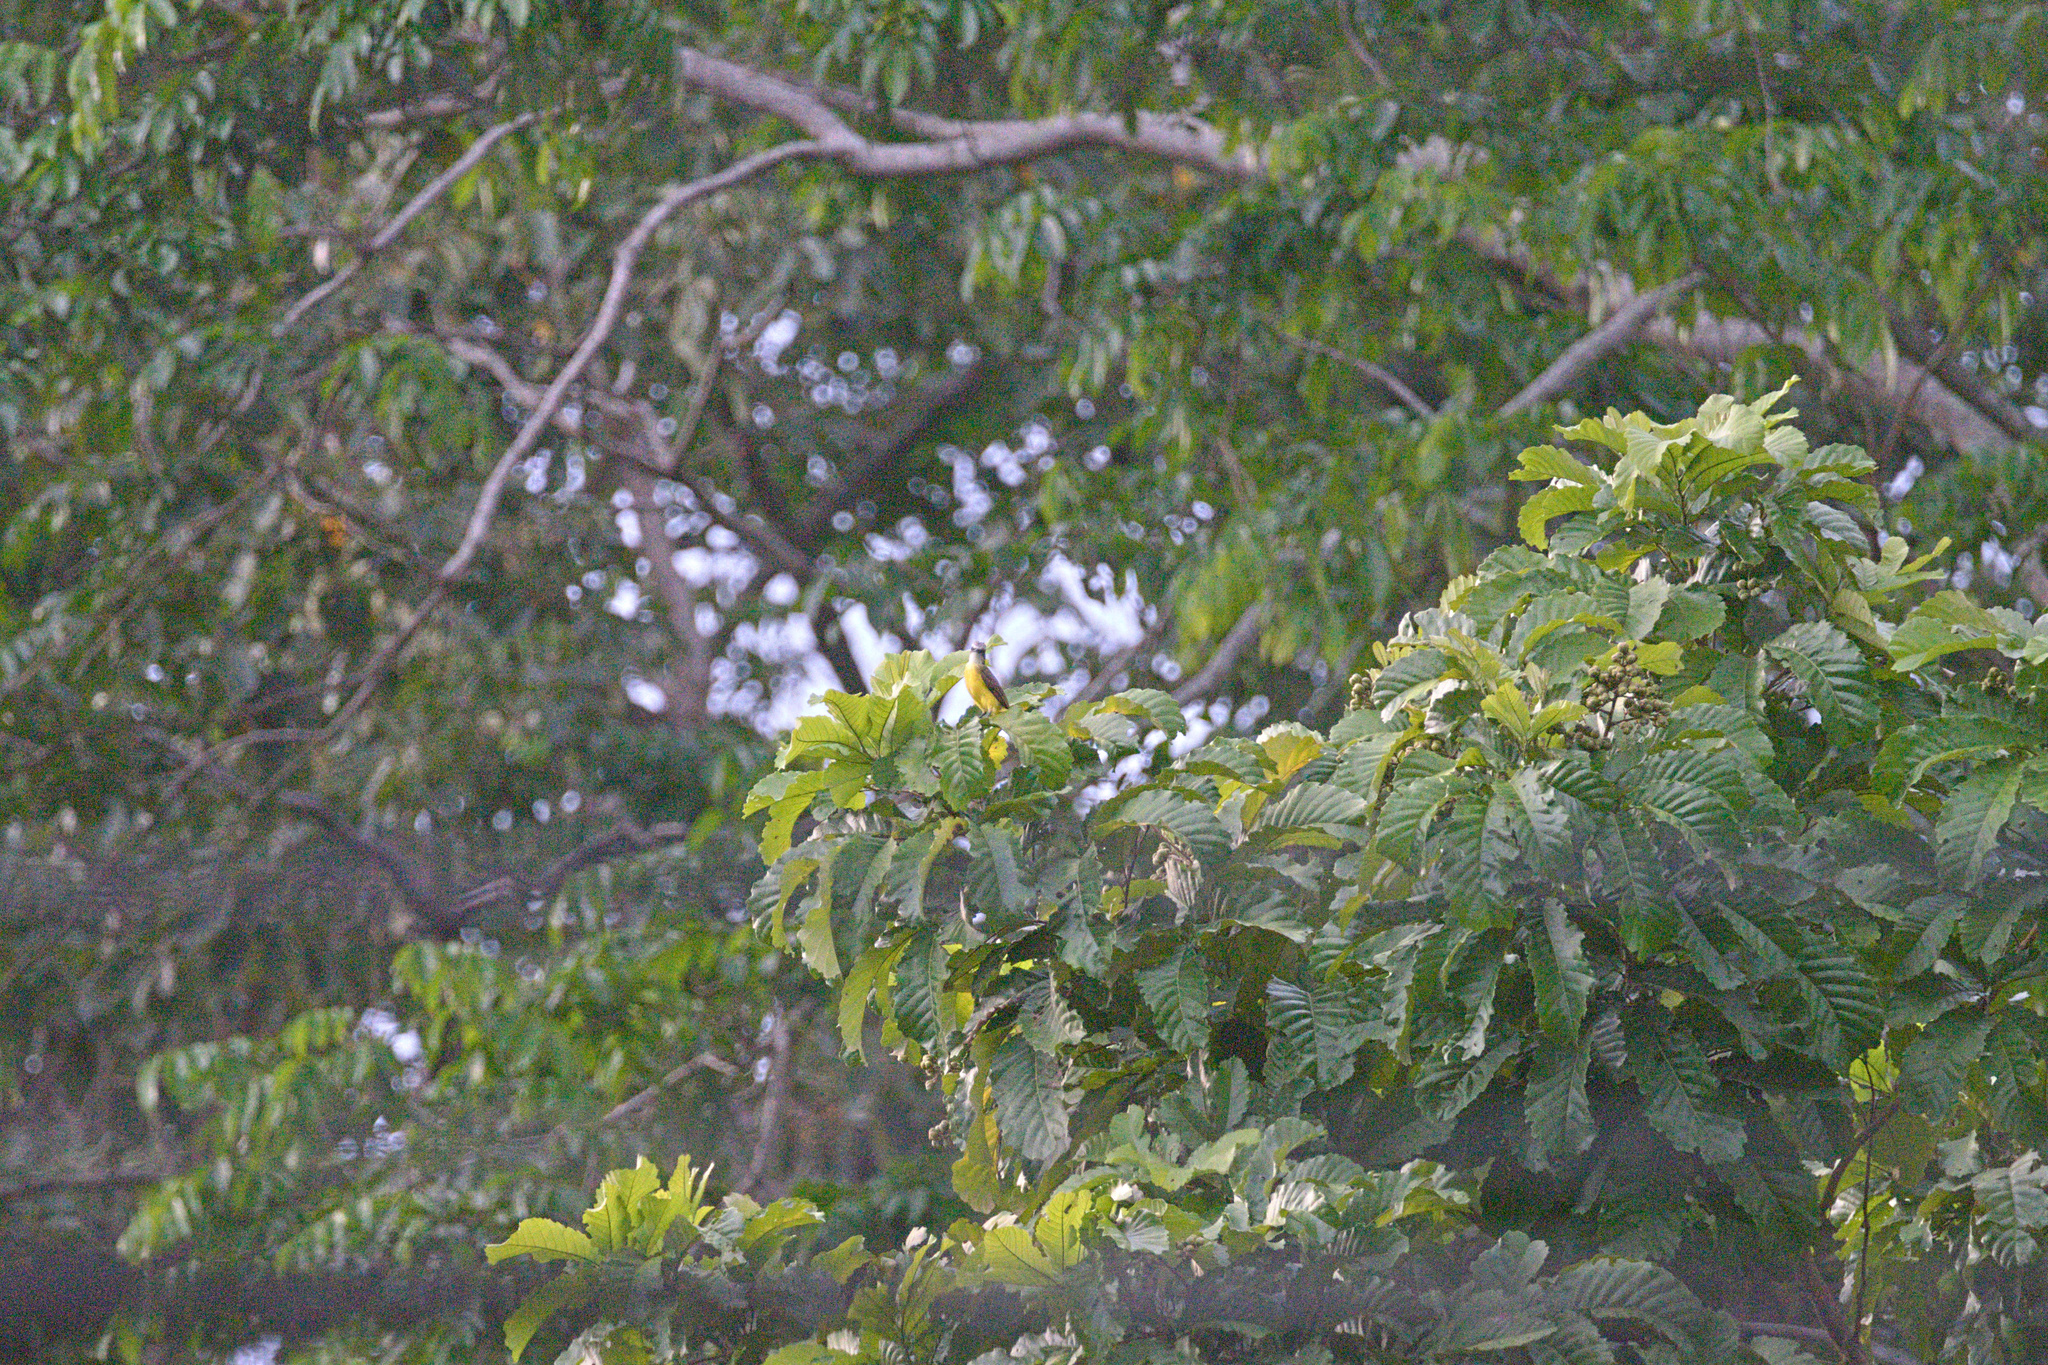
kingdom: Animalia
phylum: Chordata
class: Aves
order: Passeriformes
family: Tyrannidae
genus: Myiozetetes
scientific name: Myiozetetes granadensis
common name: Gray-capped flycatcher
